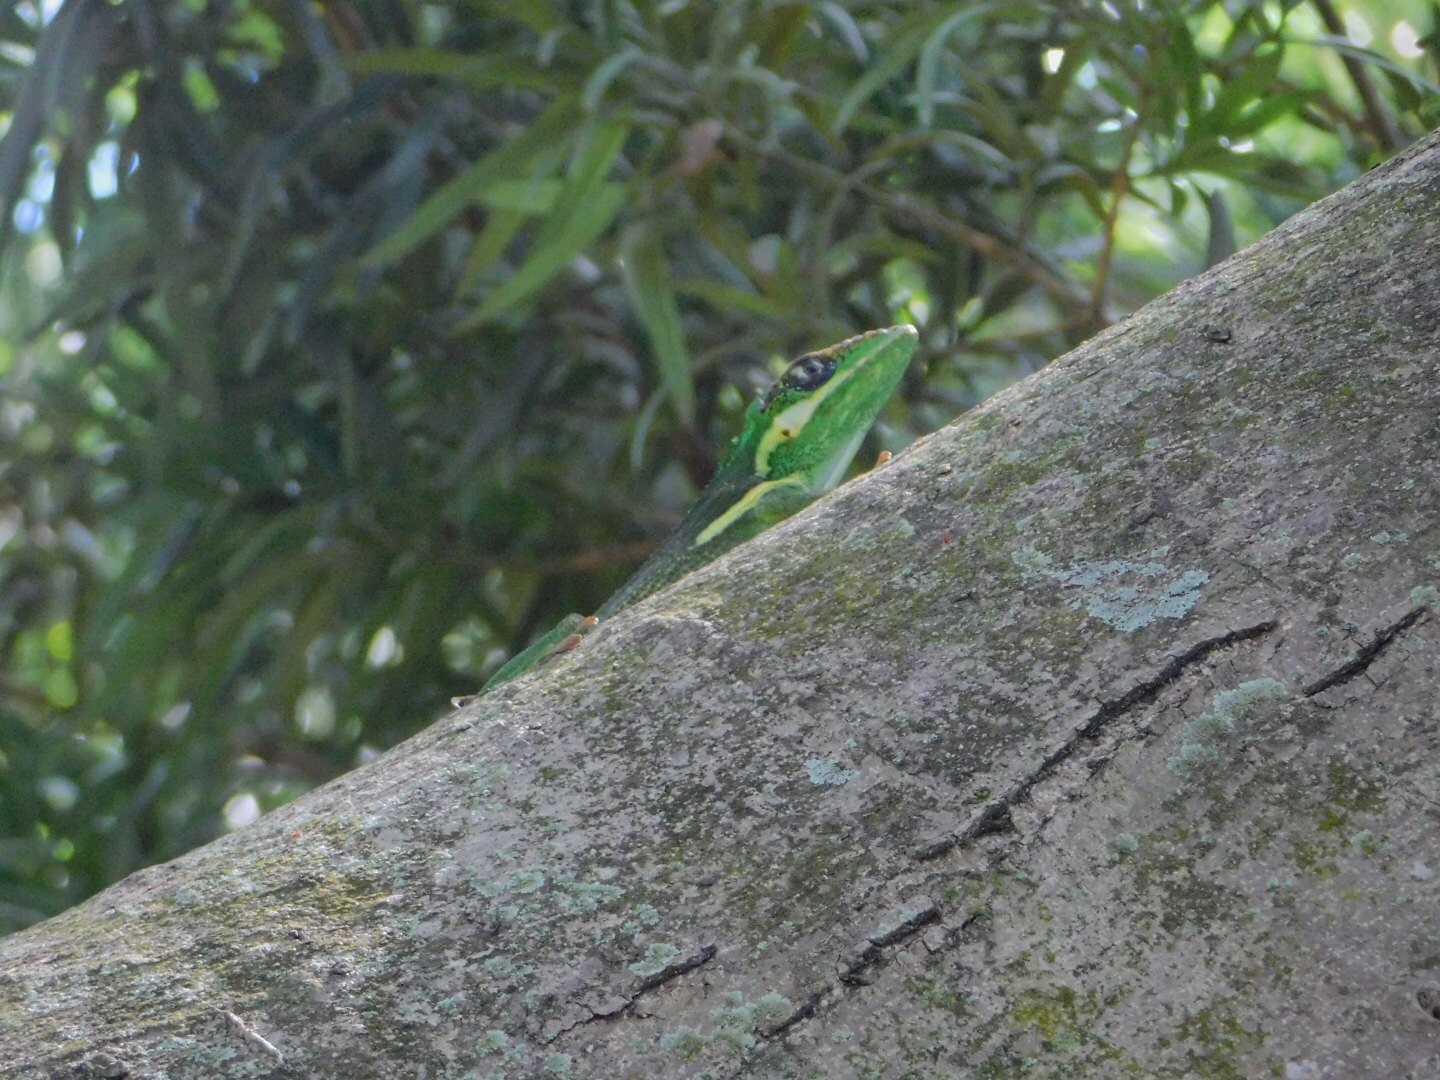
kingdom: Animalia
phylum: Chordata
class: Squamata
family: Dactyloidae
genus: Anolis
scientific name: Anolis equestris
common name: Knight anole
